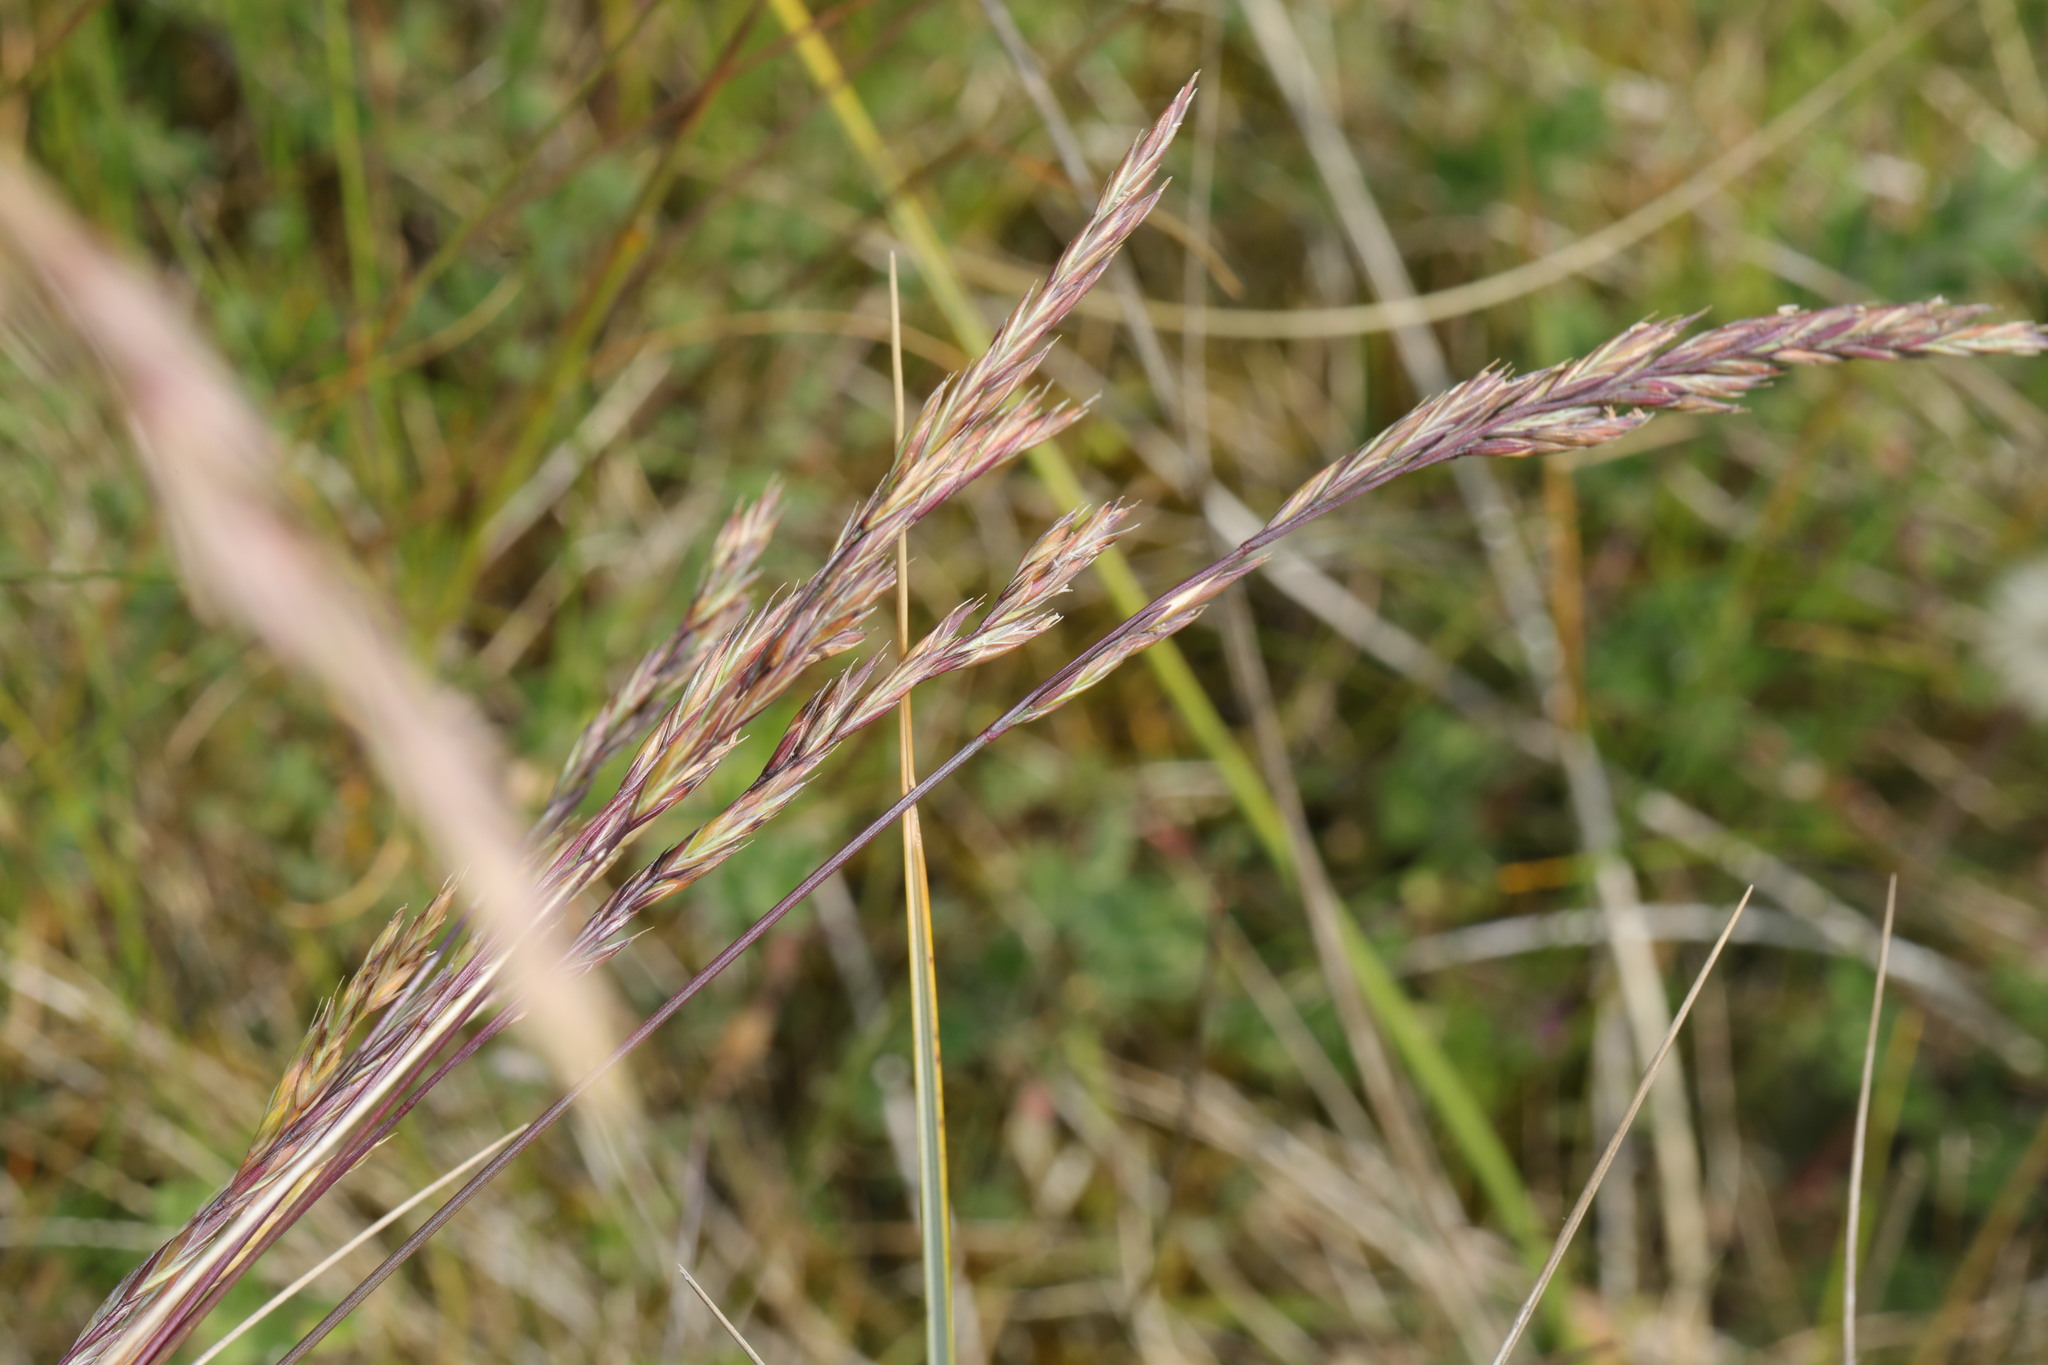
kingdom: Plantae
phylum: Tracheophyta
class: Liliopsida
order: Poales
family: Poaceae
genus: Festuca
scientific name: Festuca rubra
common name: Red fescue
